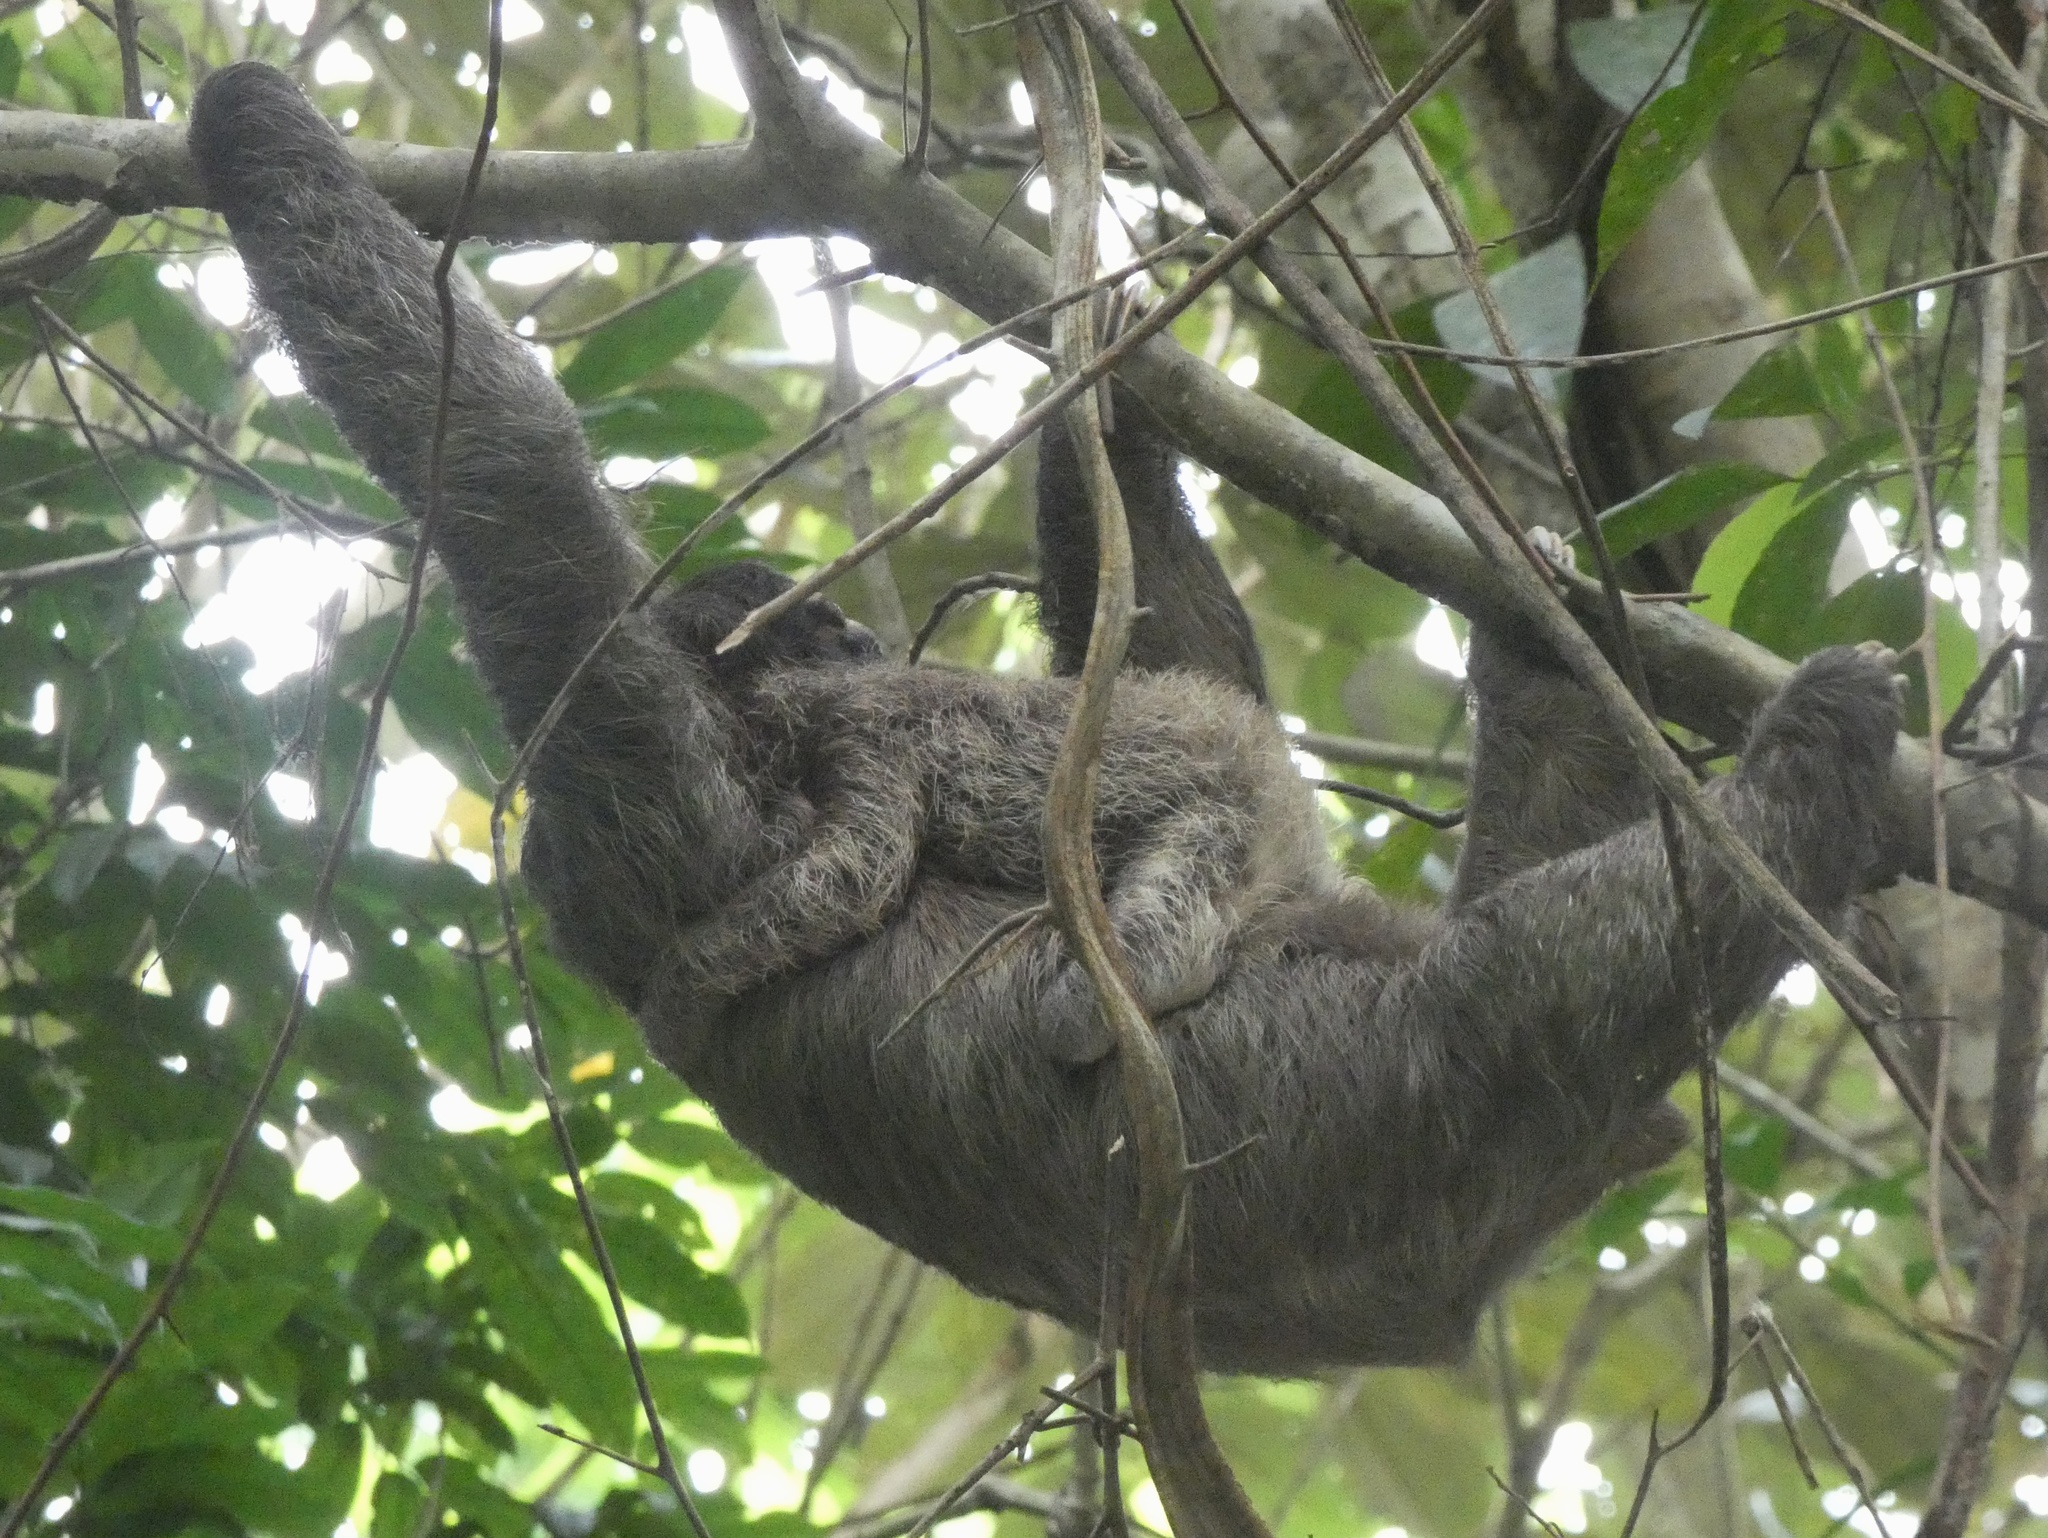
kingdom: Animalia
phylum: Chordata
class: Mammalia
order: Pilosa
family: Bradypodidae
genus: Bradypus
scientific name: Bradypus variegatus
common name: Brown-throated three-toed sloth
